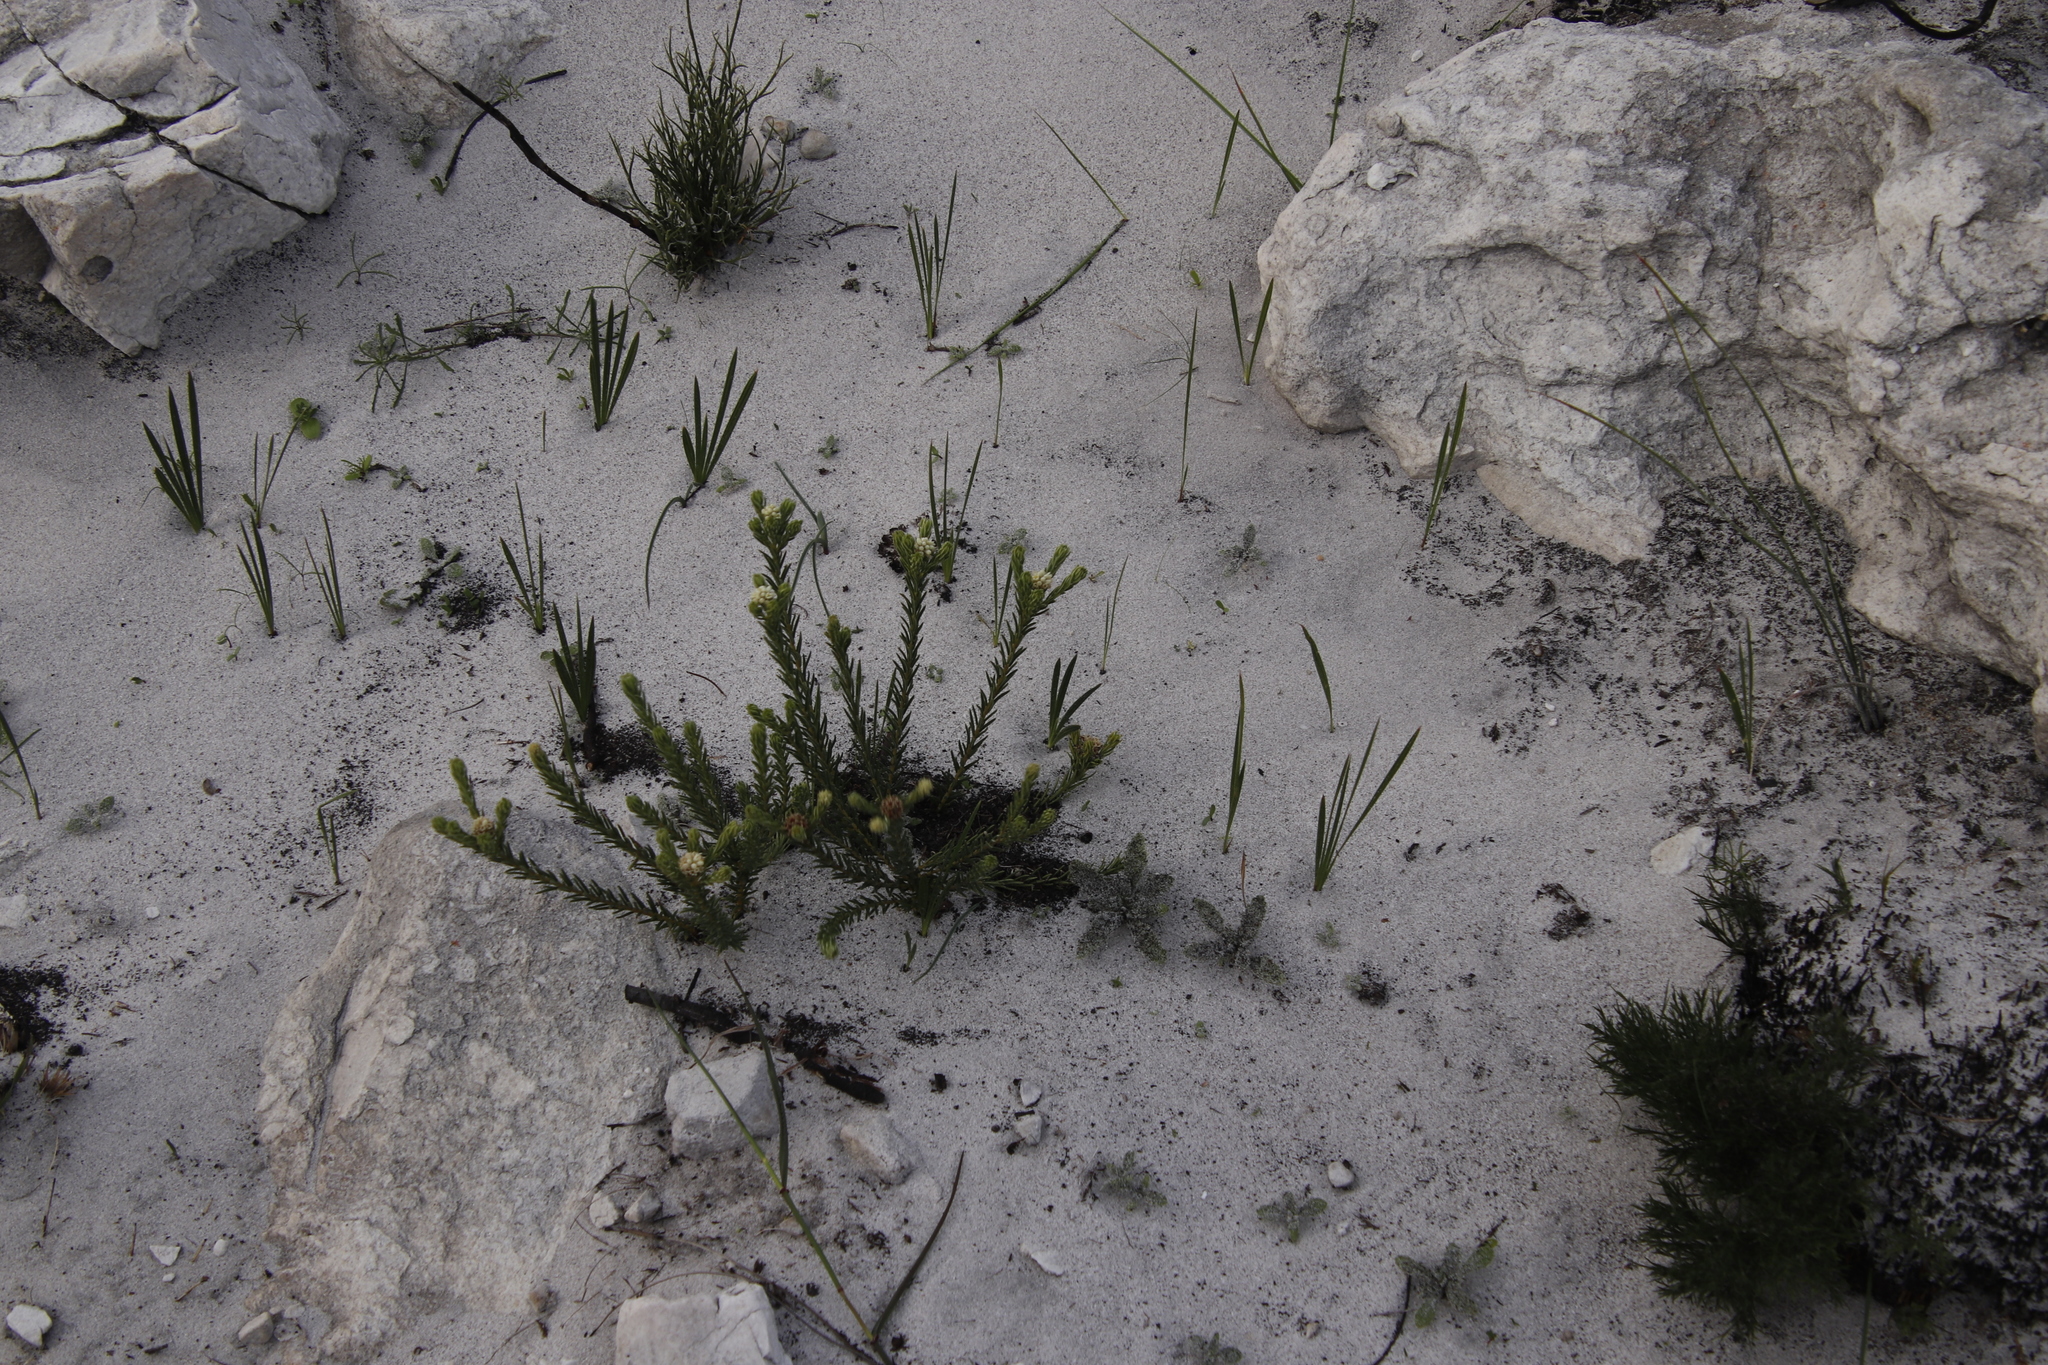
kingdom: Plantae
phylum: Tracheophyta
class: Magnoliopsida
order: Rosales
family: Rhamnaceae
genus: Phylica
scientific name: Phylica imberbis
